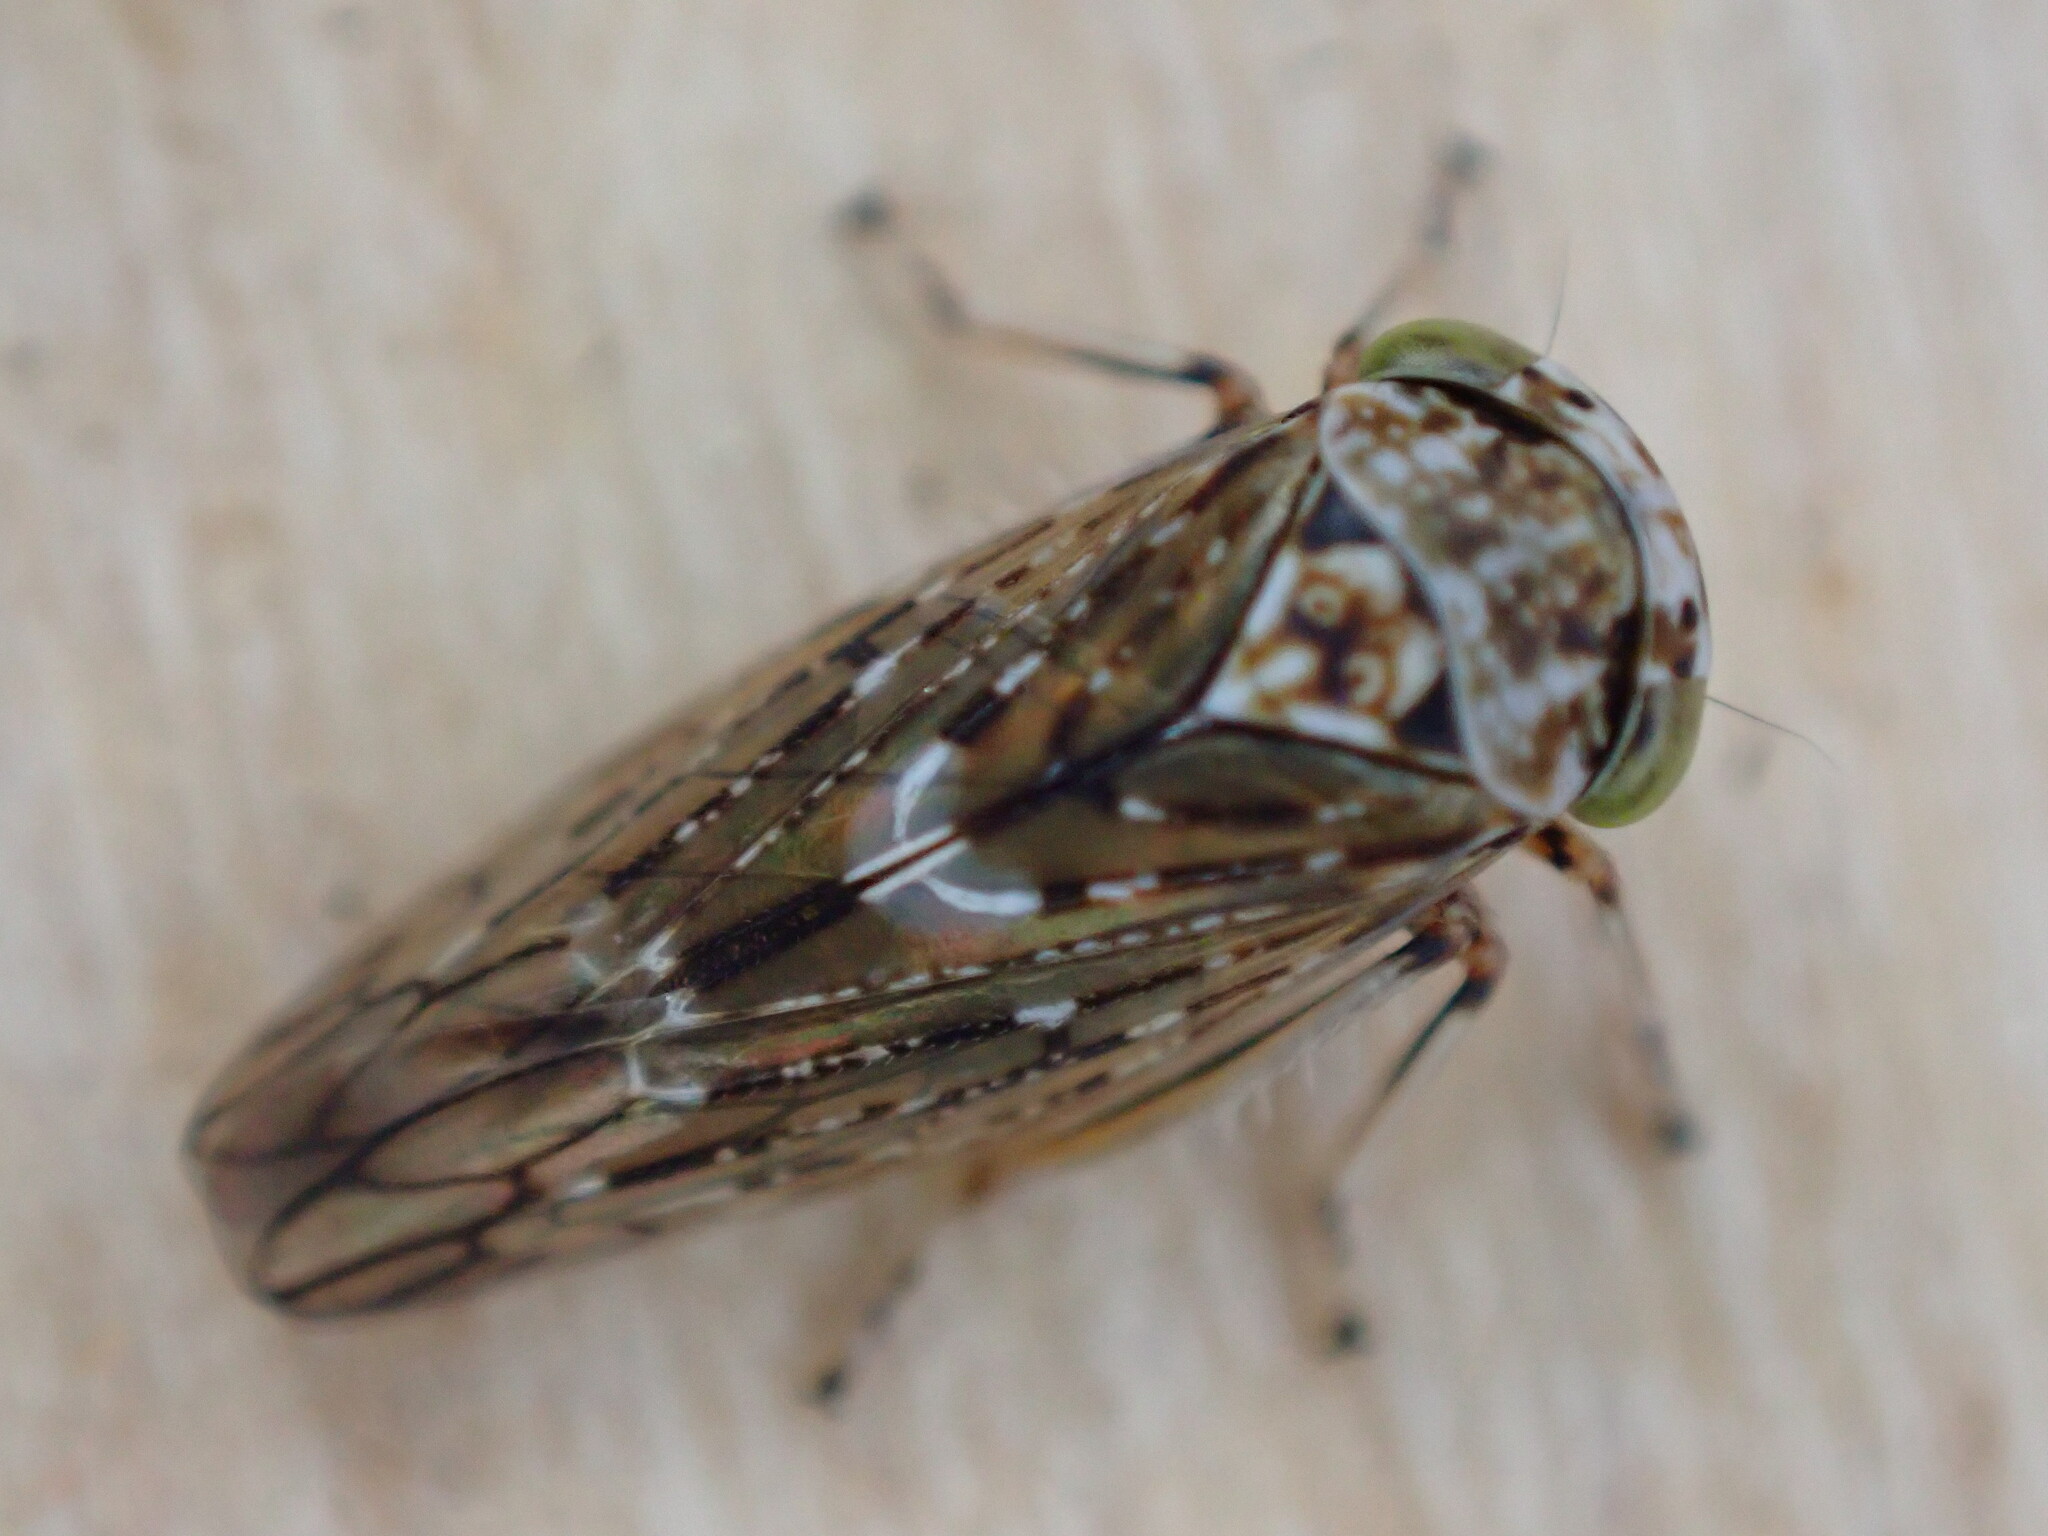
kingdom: Animalia
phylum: Arthropoda
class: Insecta
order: Hemiptera
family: Cicadellidae
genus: Acericerus
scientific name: Acericerus heydenii
